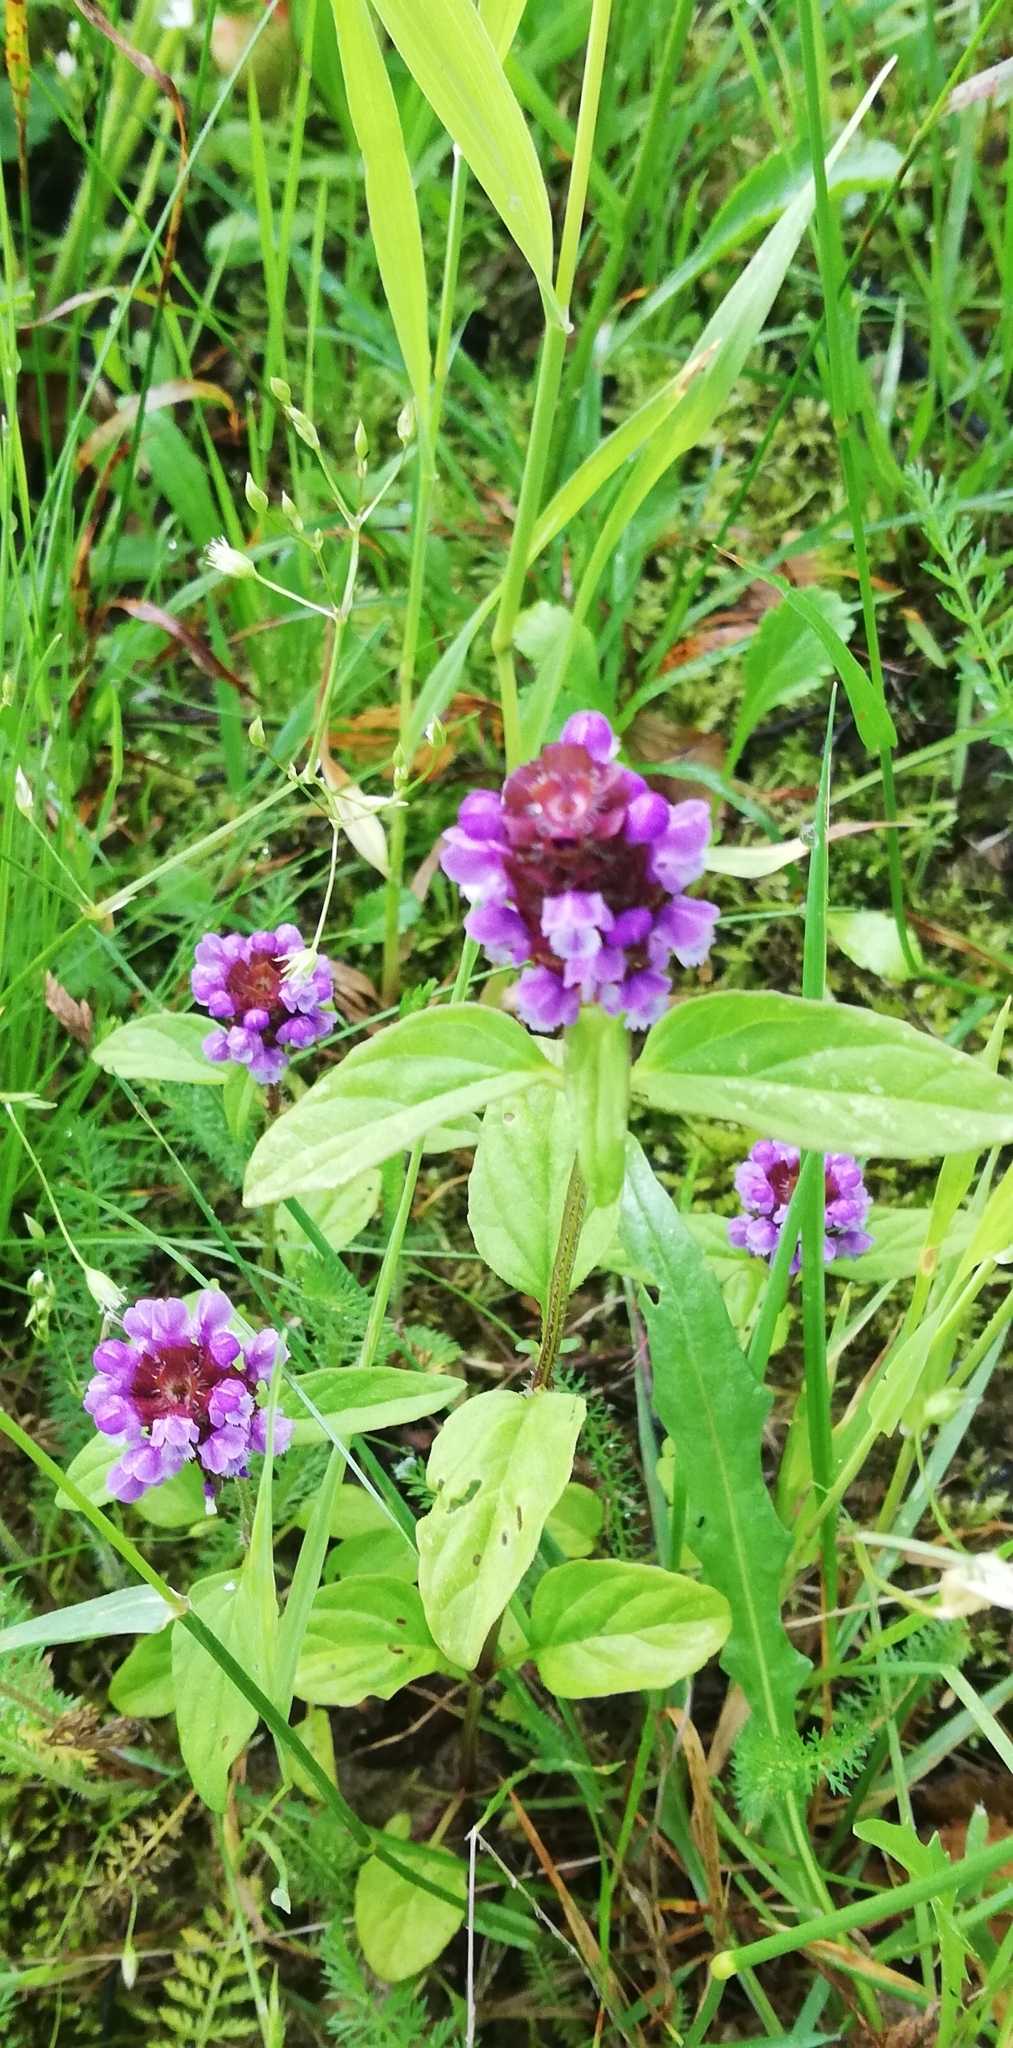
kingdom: Plantae
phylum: Tracheophyta
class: Magnoliopsida
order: Lamiales
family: Lamiaceae
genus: Prunella
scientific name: Prunella vulgaris
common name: Heal-all
